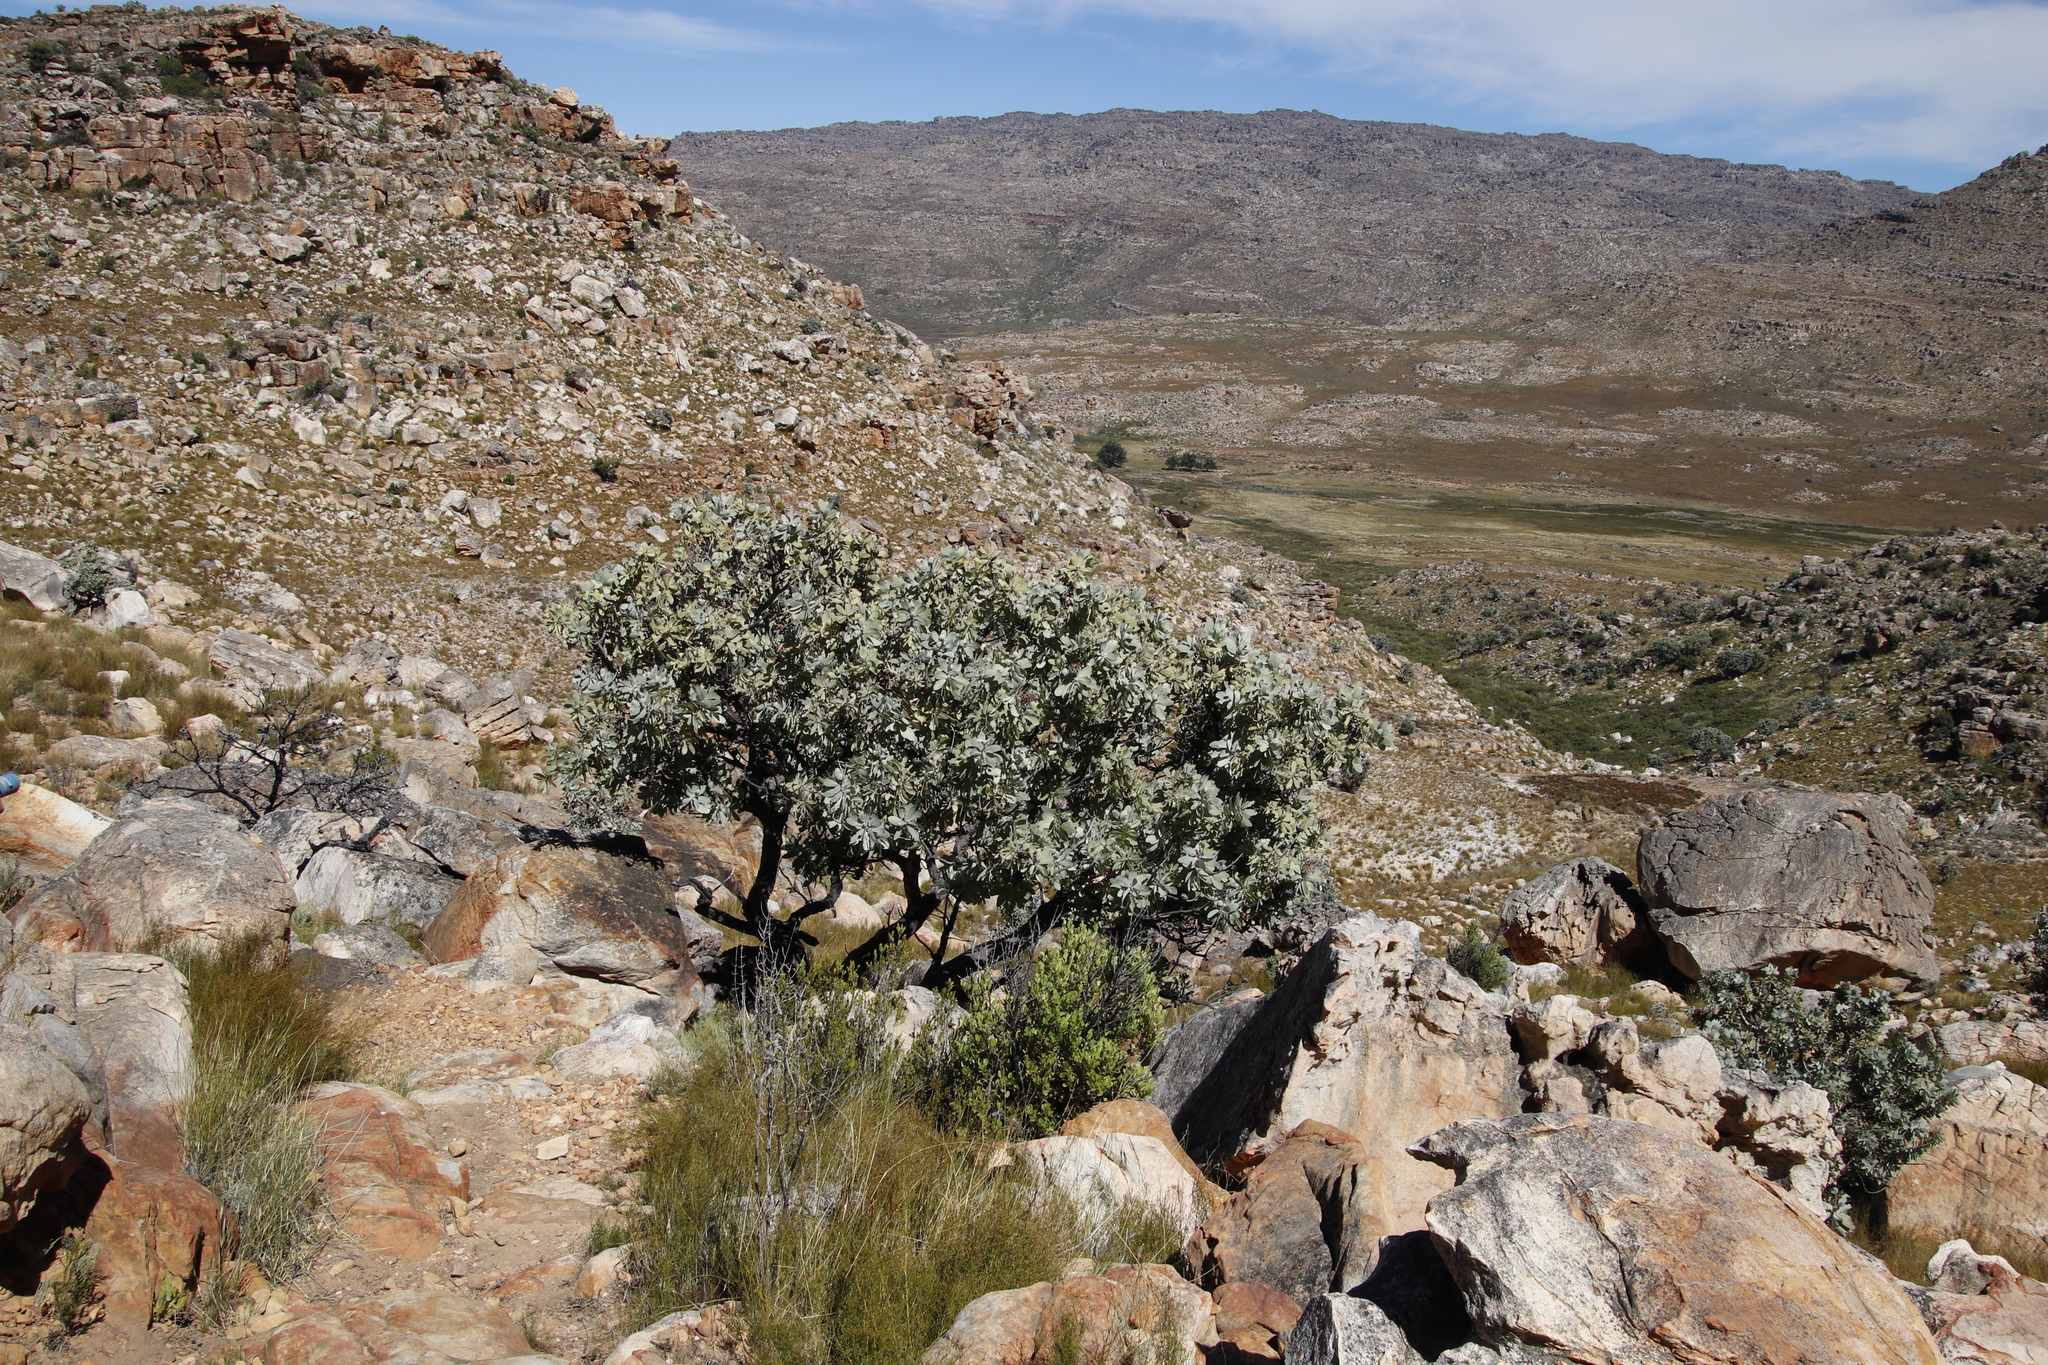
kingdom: Plantae
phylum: Tracheophyta
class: Magnoliopsida
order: Proteales
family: Proteaceae
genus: Protea
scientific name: Protea nitida
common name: Tree protea
